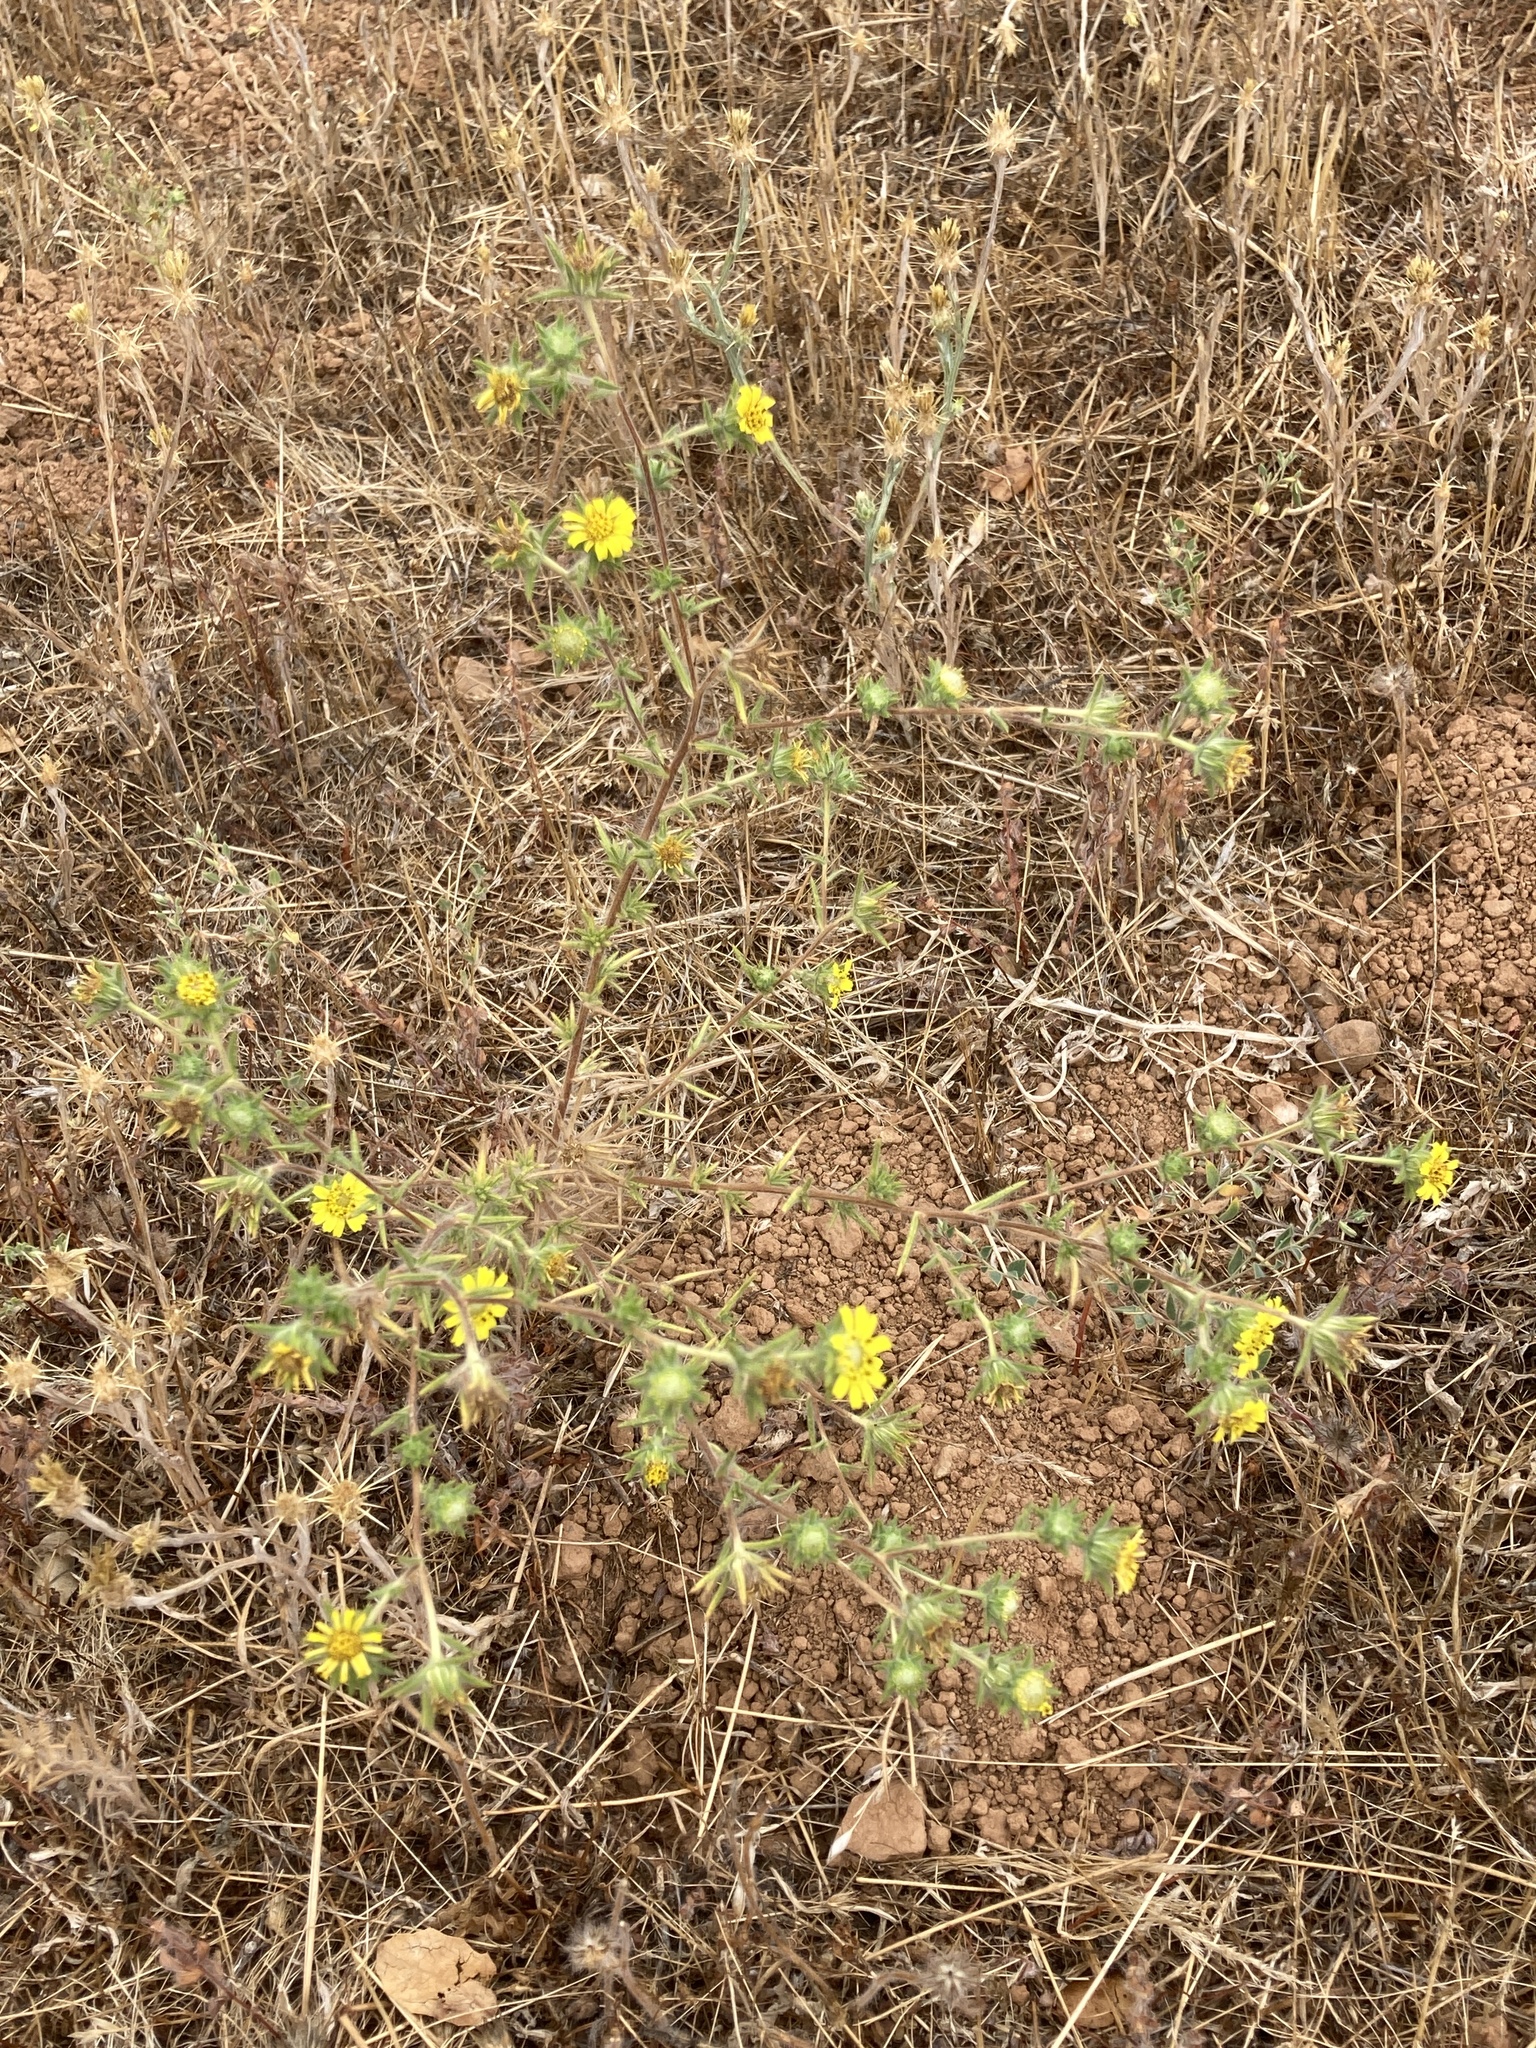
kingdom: Plantae
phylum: Tracheophyta
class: Magnoliopsida
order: Asterales
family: Asteraceae
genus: Centromadia
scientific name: Centromadia fitchii
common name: Fitch's spikeweed
